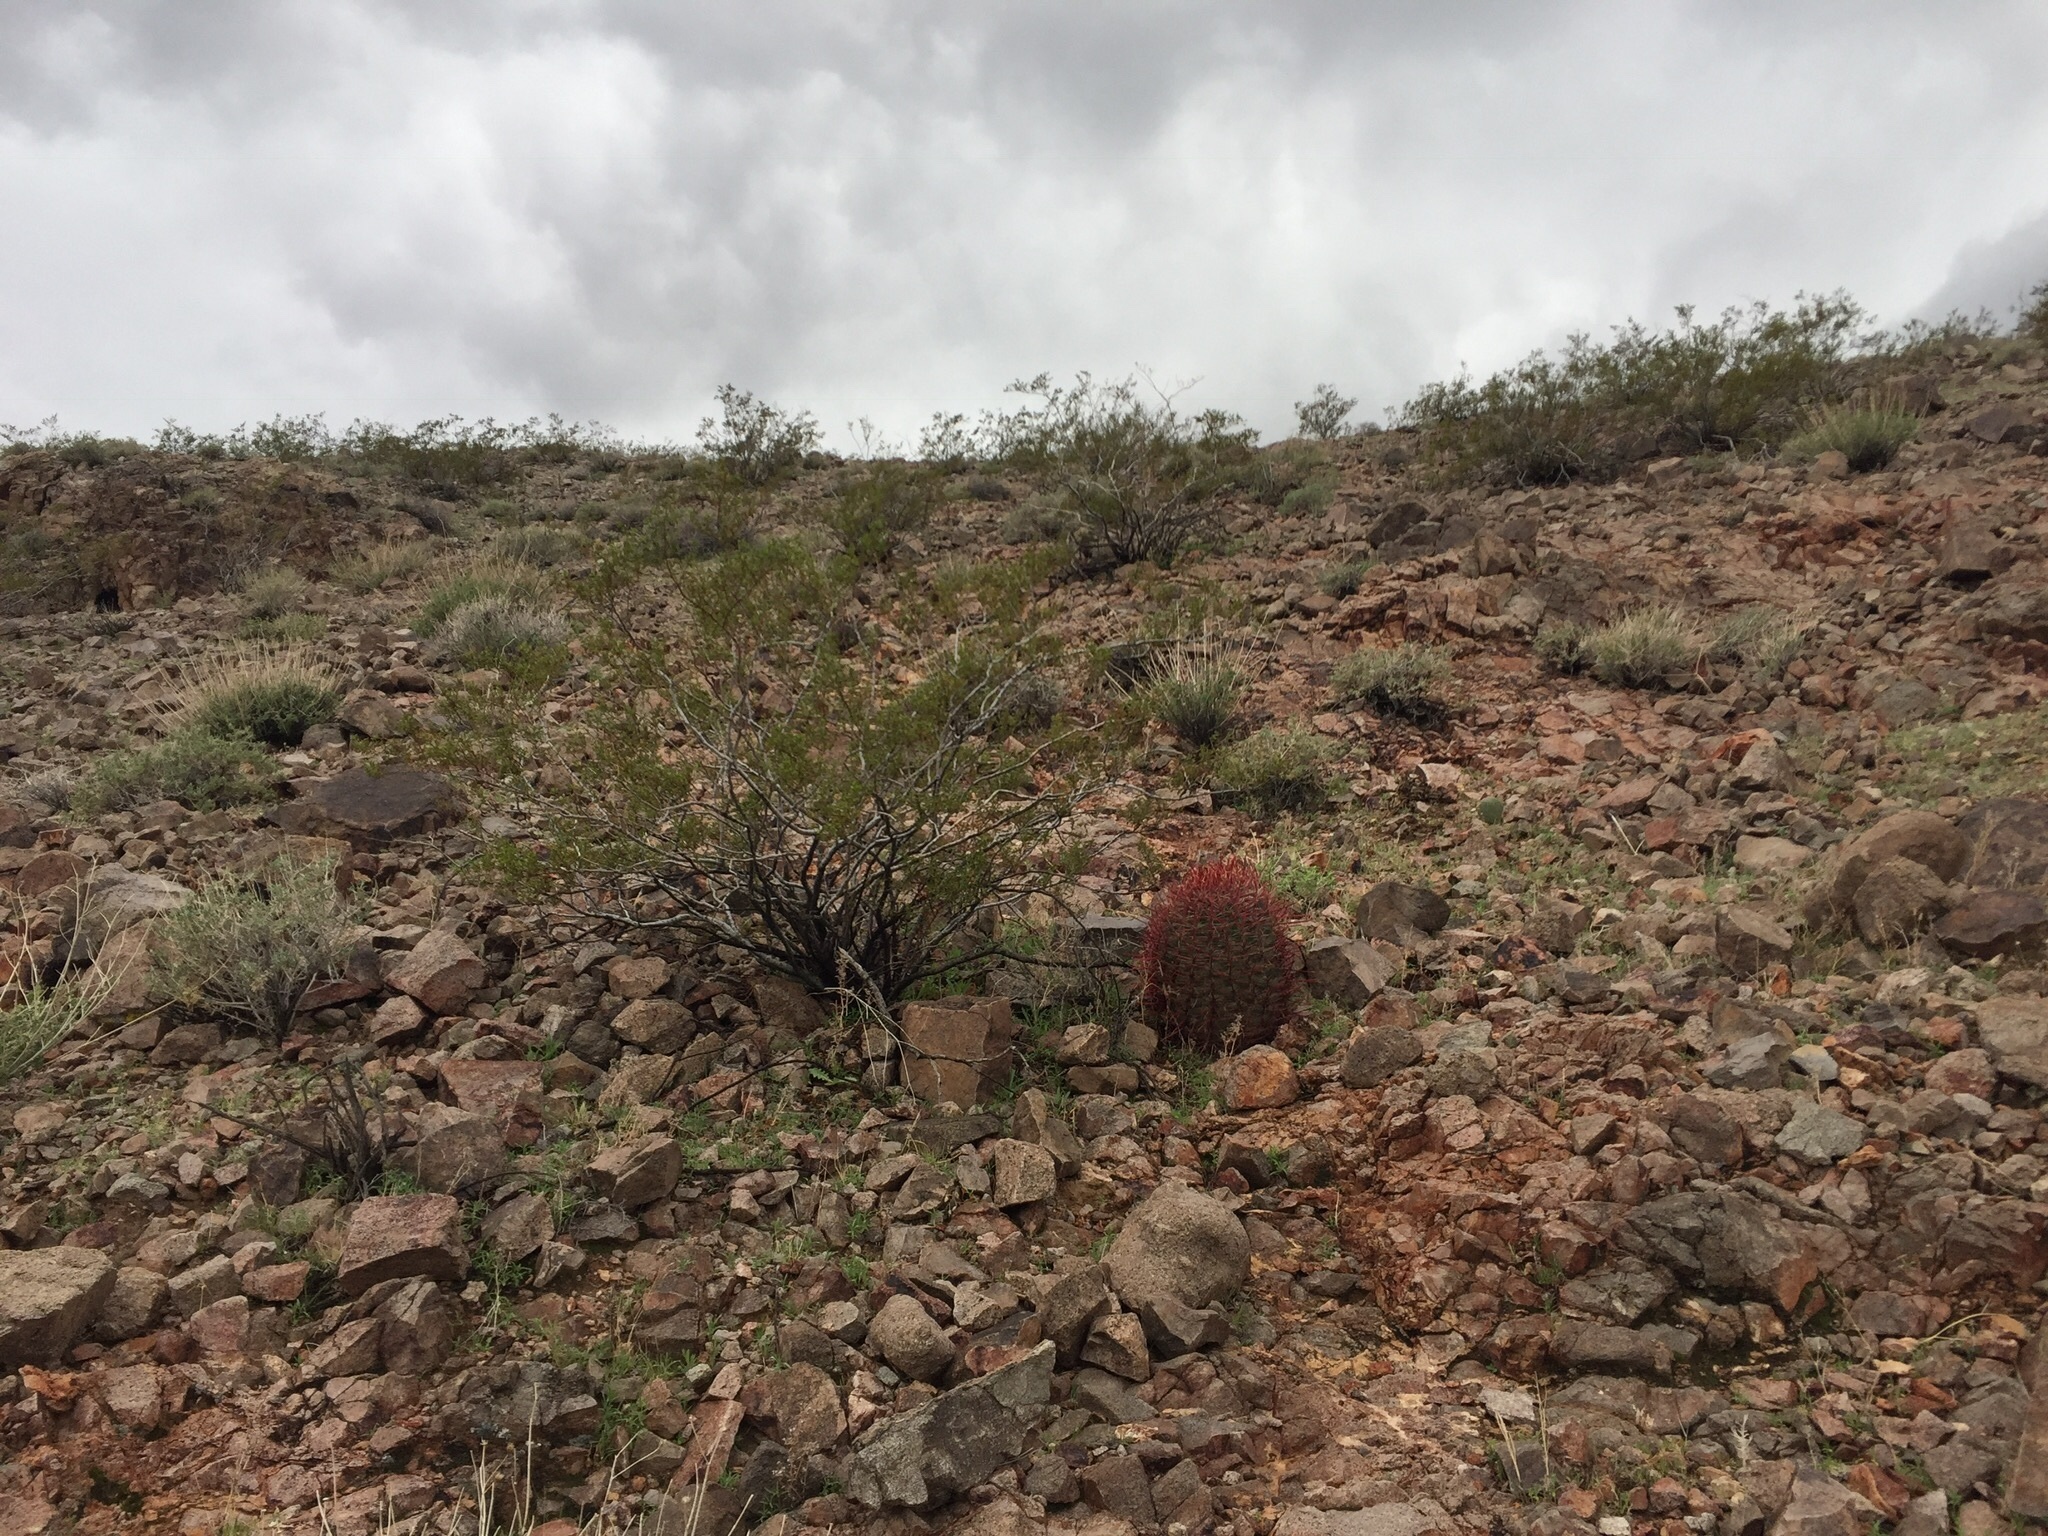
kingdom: Plantae
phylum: Tracheophyta
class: Magnoliopsida
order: Zygophyllales
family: Zygophyllaceae
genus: Larrea
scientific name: Larrea tridentata
